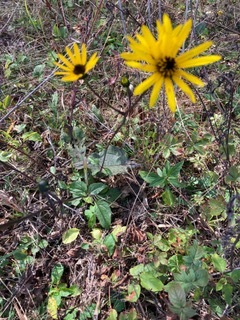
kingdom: Plantae
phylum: Tracheophyta
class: Magnoliopsida
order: Asterales
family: Asteraceae
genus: Helianthus
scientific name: Helianthus atrorubens
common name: Dark-eyed sunflower
